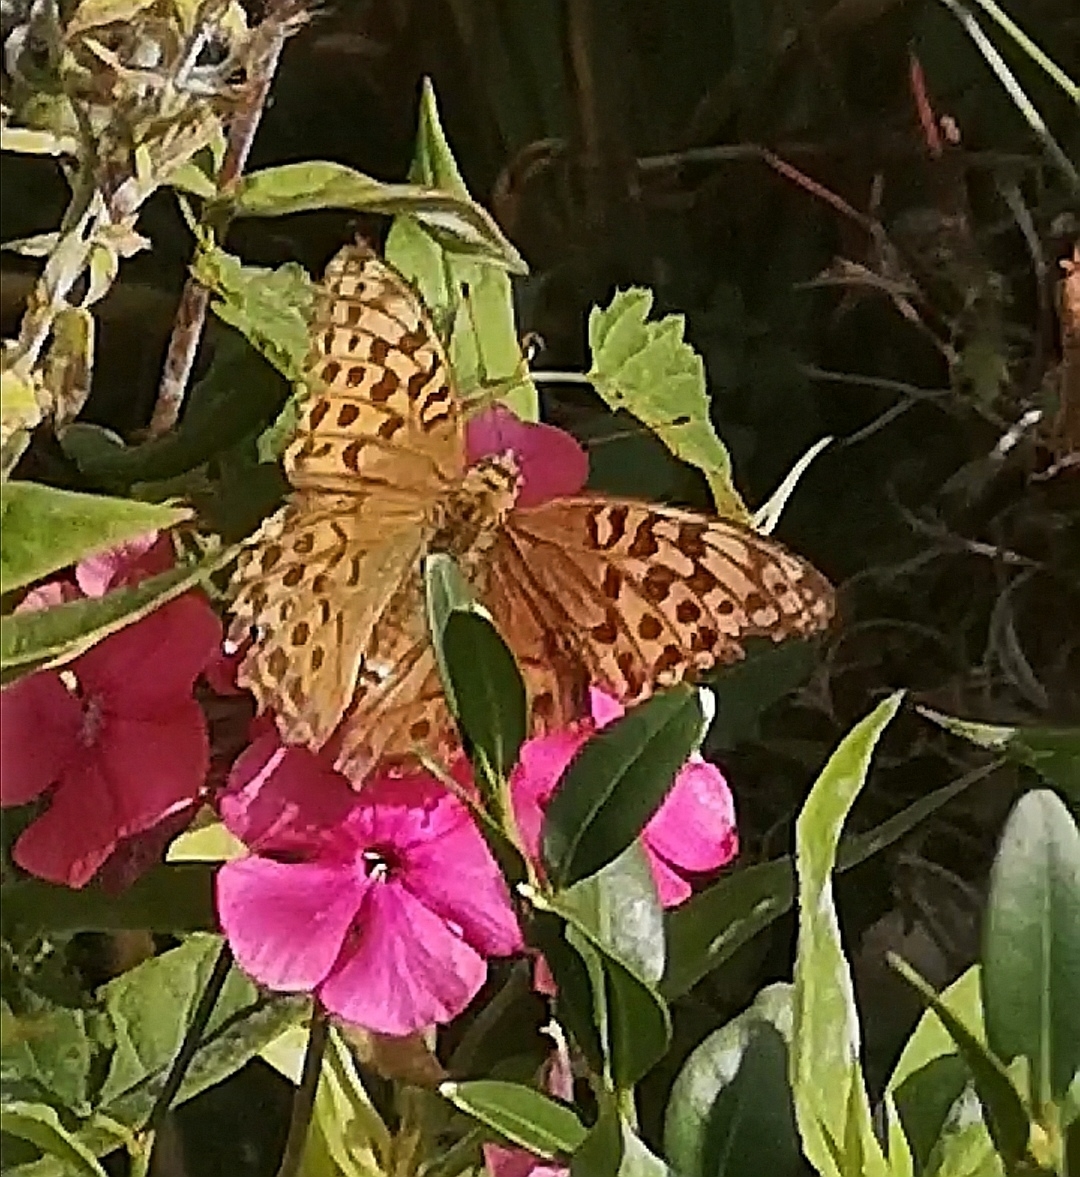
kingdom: Animalia
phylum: Arthropoda
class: Insecta
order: Lepidoptera
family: Nymphalidae
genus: Argynnis
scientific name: Argynnis paphia
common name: Silver-washed fritillary
